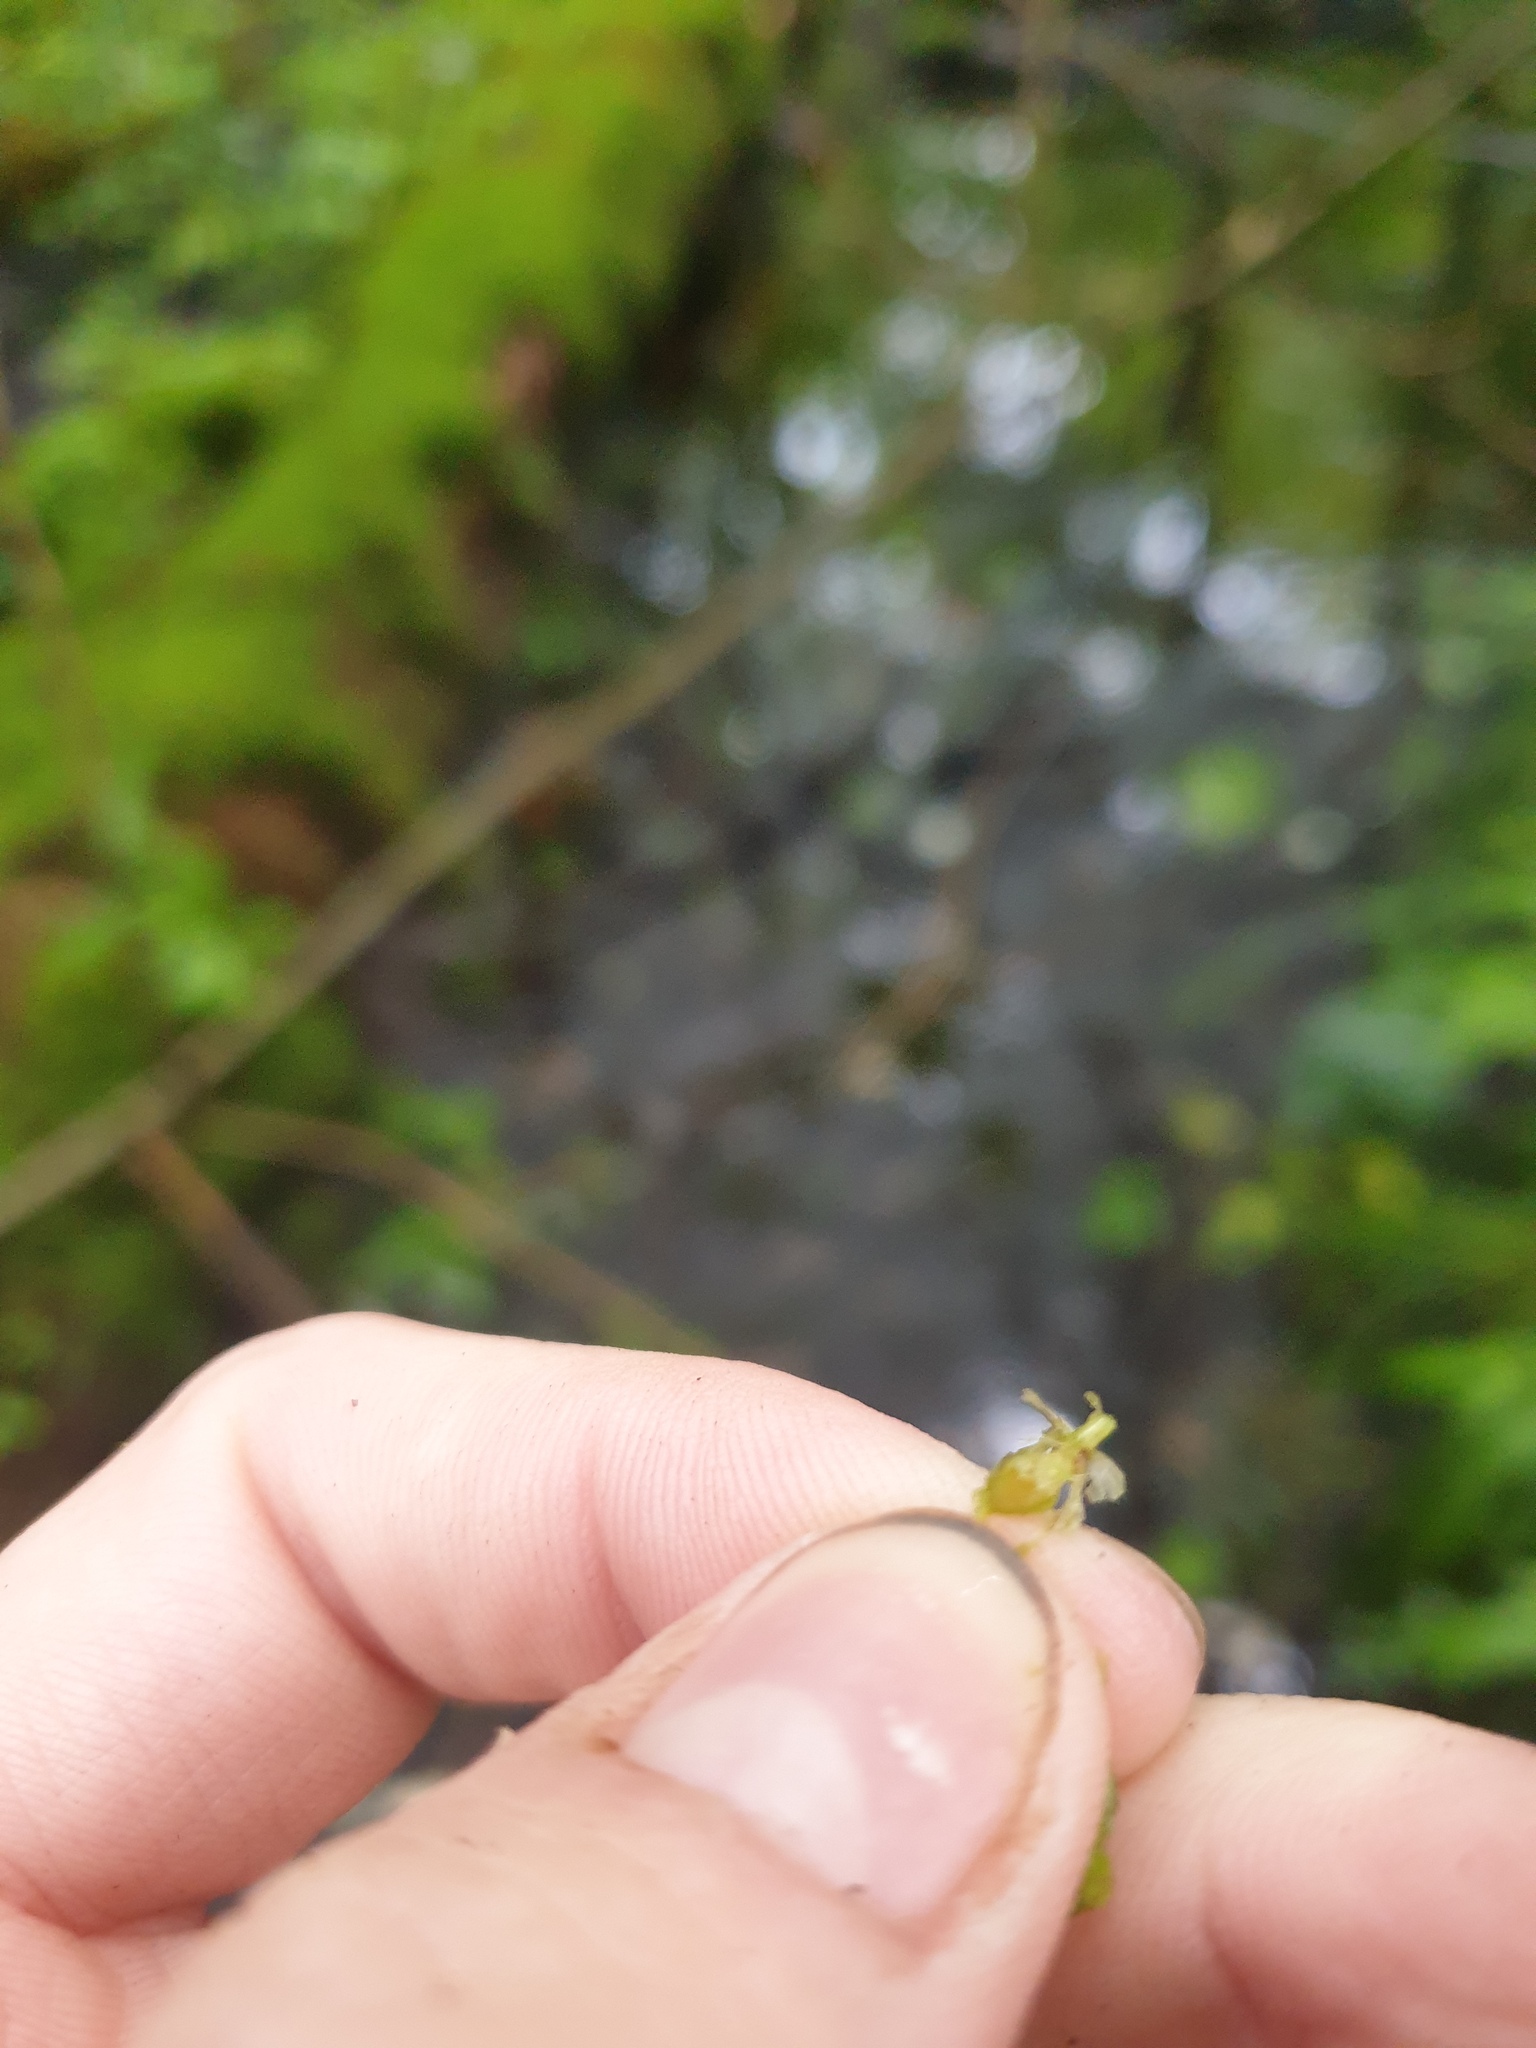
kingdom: Plantae
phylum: Tracheophyta
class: Liliopsida
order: Poales
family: Cyperaceae
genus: Carex
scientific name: Carex lupulina
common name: Hop sedge
